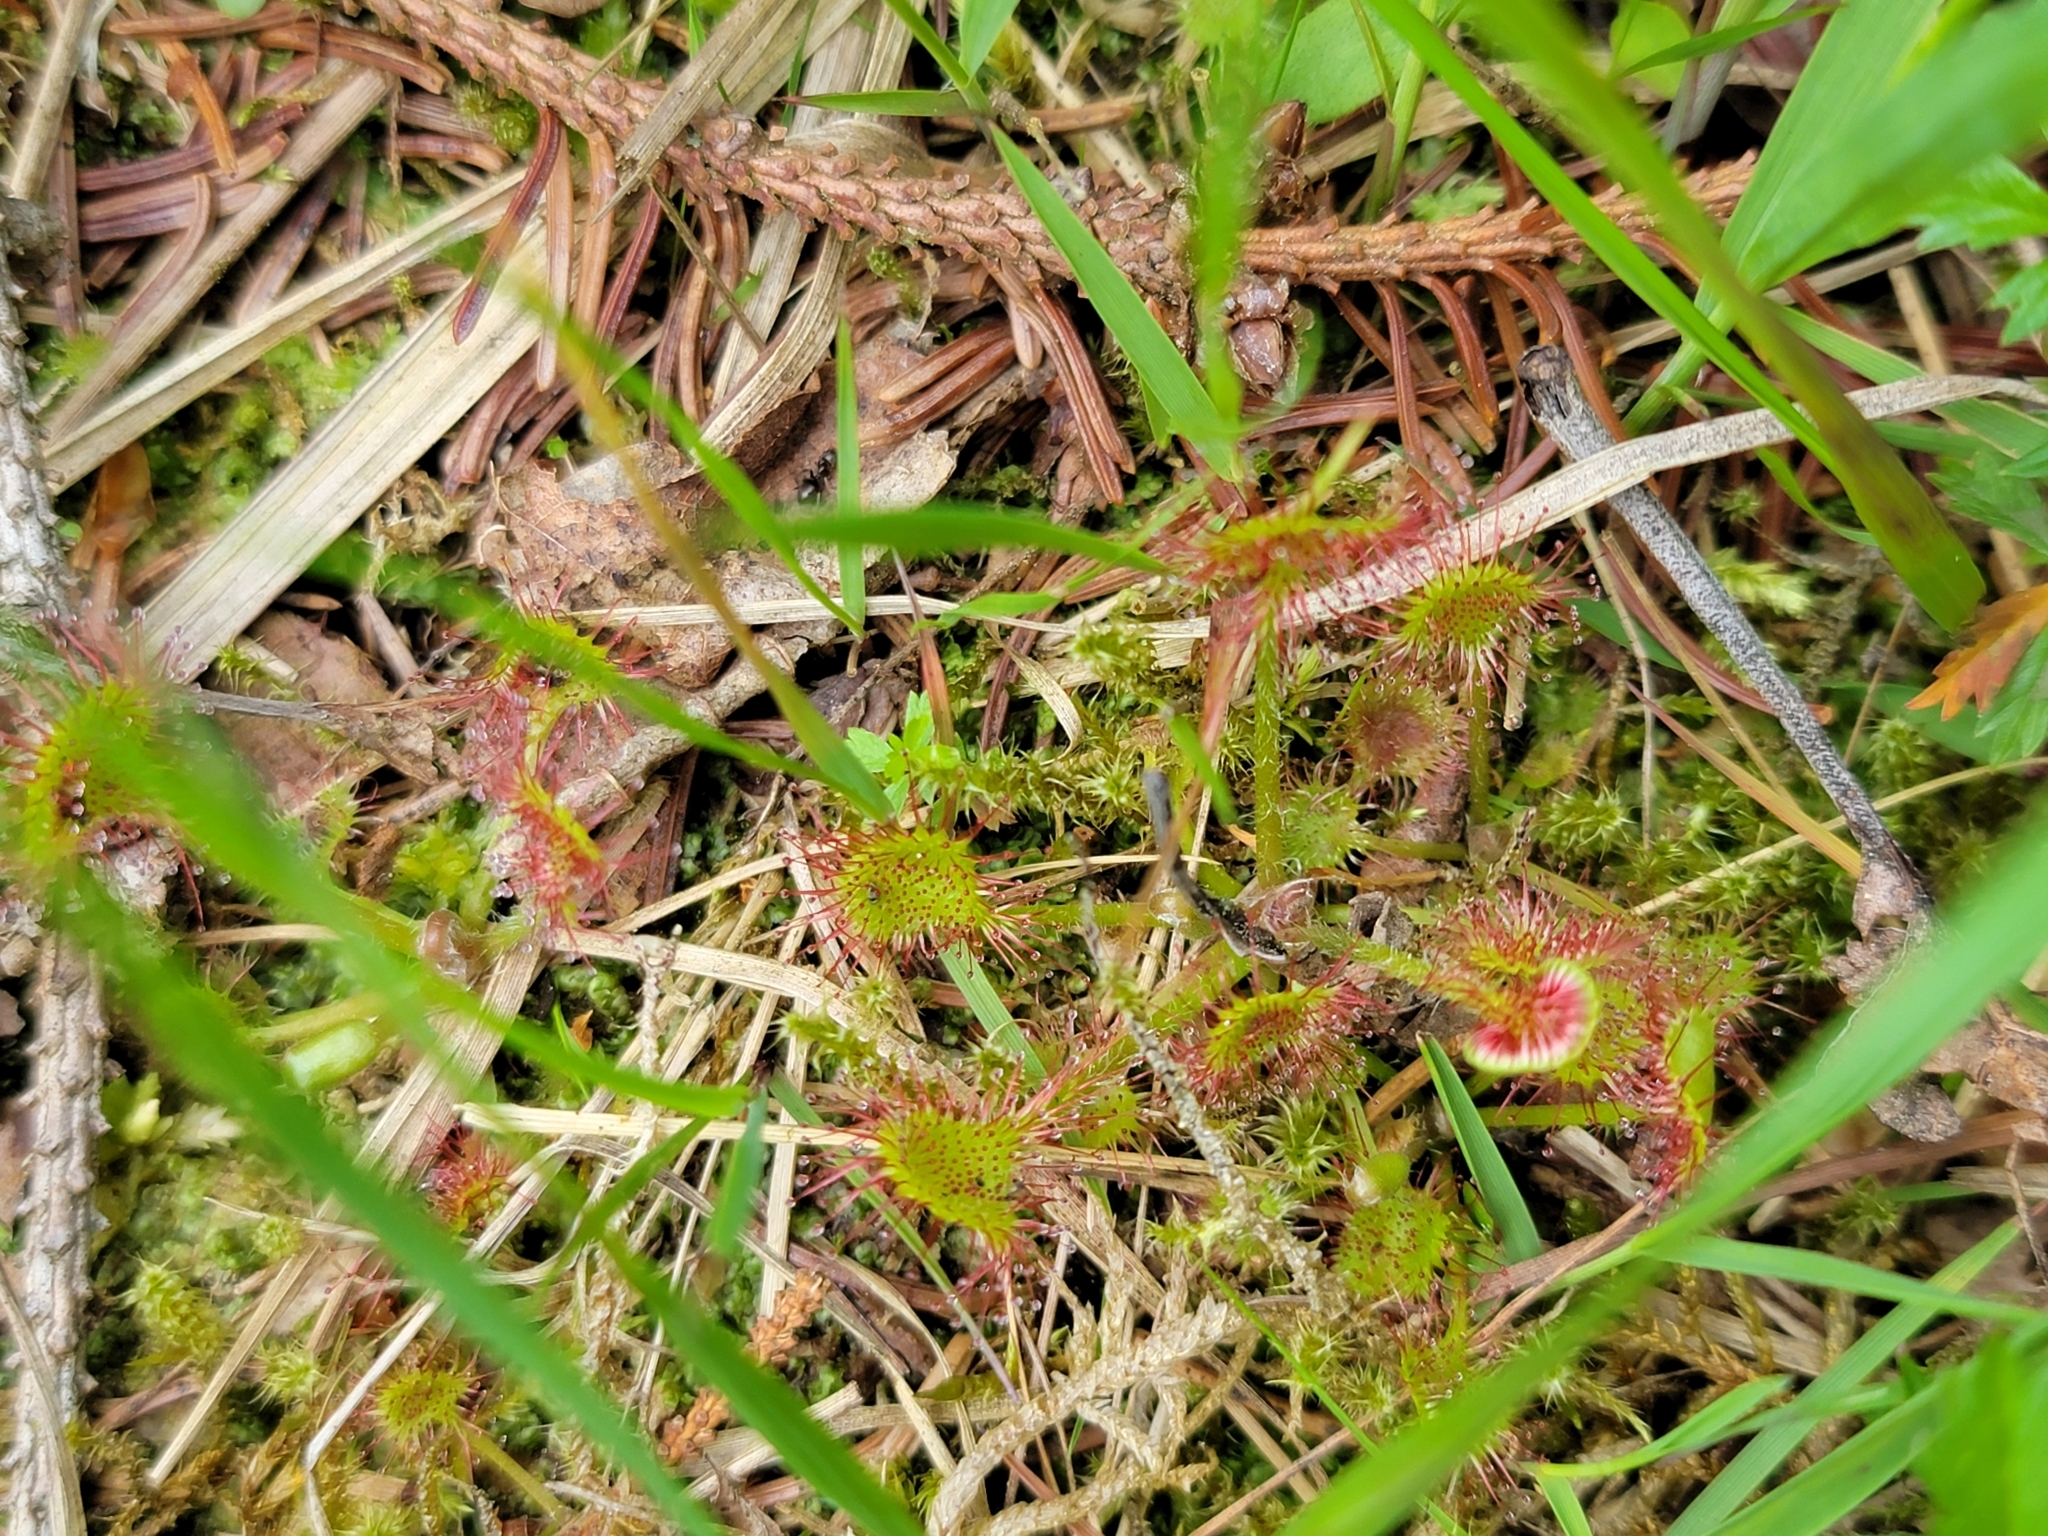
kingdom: Plantae
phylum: Tracheophyta
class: Magnoliopsida
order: Caryophyllales
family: Droseraceae
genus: Drosera
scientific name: Drosera rotundifolia
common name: Round-leaved sundew
